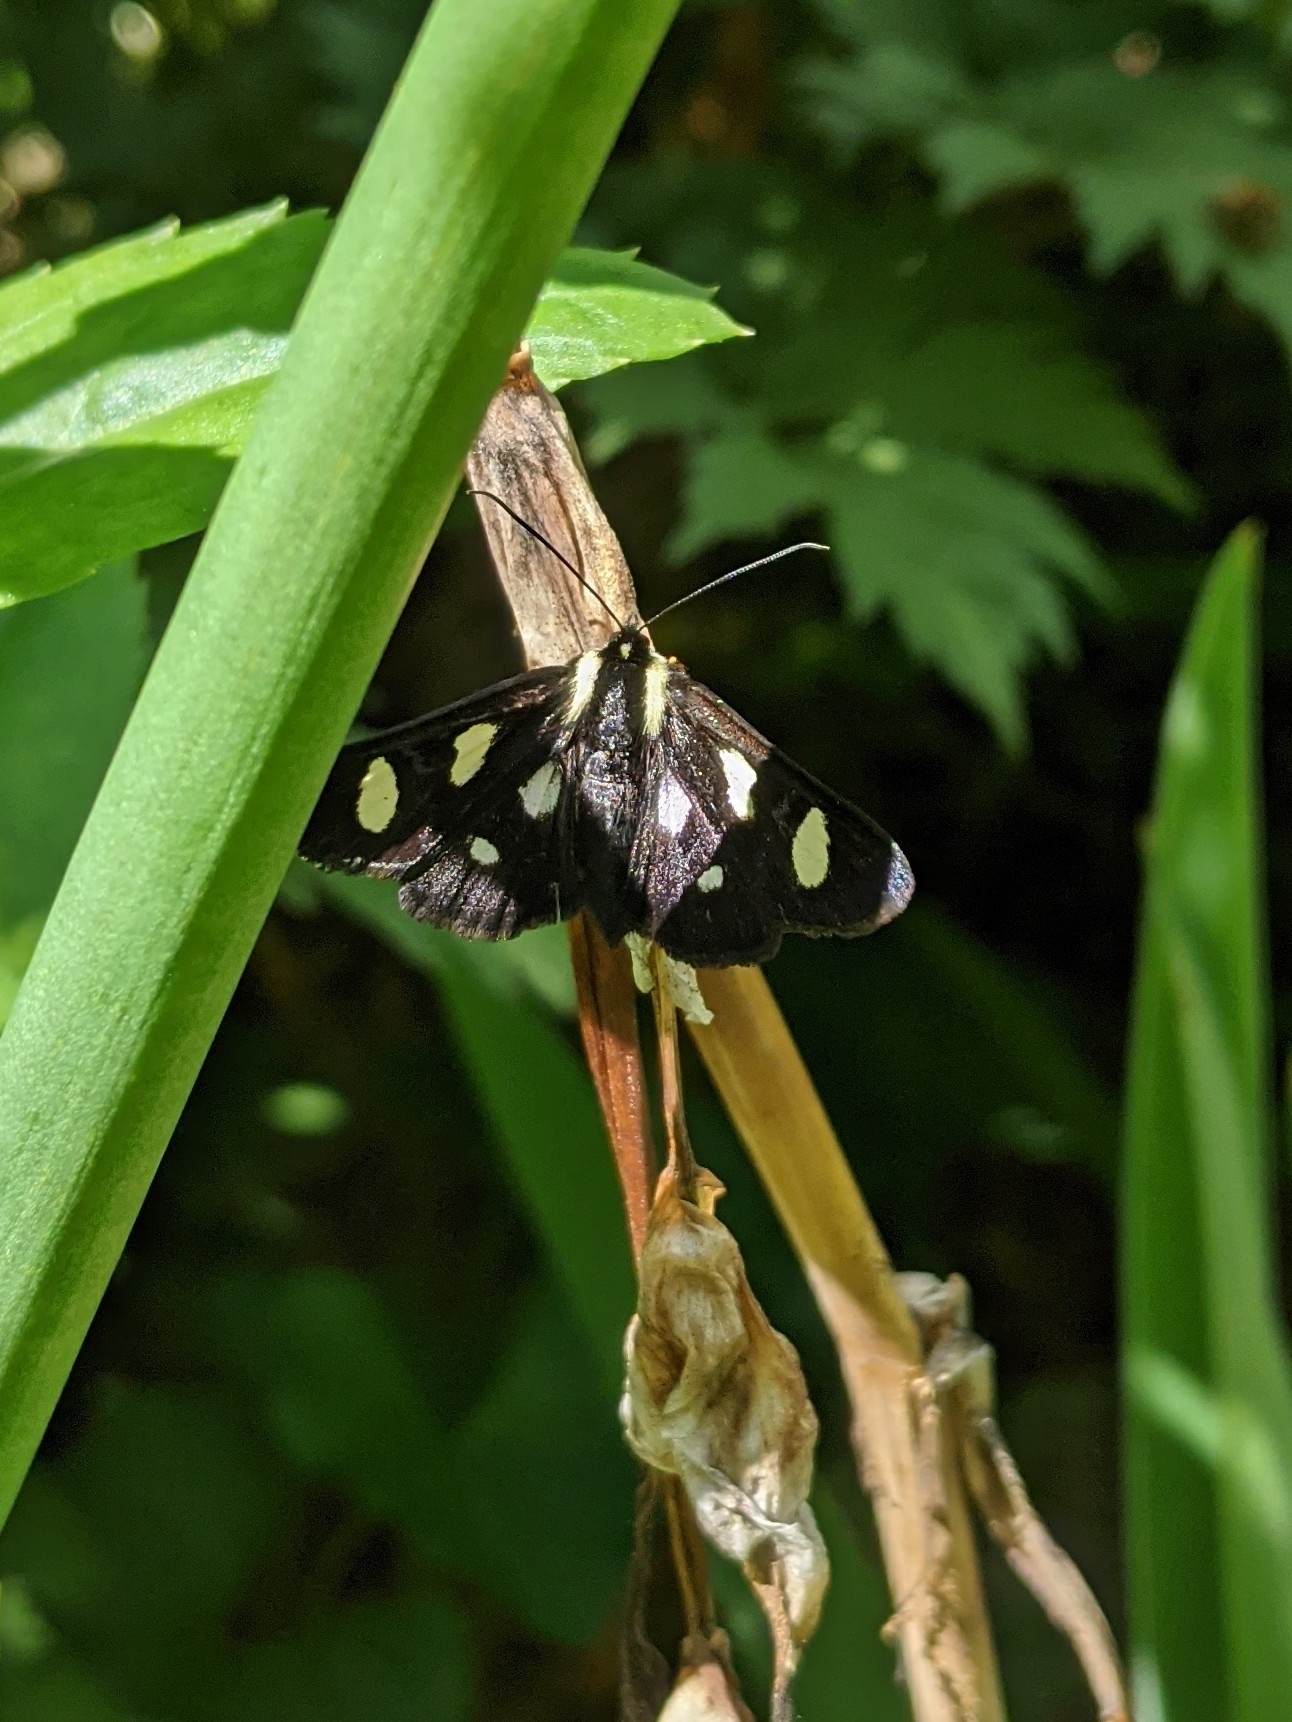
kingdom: Animalia
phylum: Arthropoda
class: Insecta
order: Lepidoptera
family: Noctuidae
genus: Alypia
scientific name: Alypia octomaculata
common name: Eight-spotted forester
